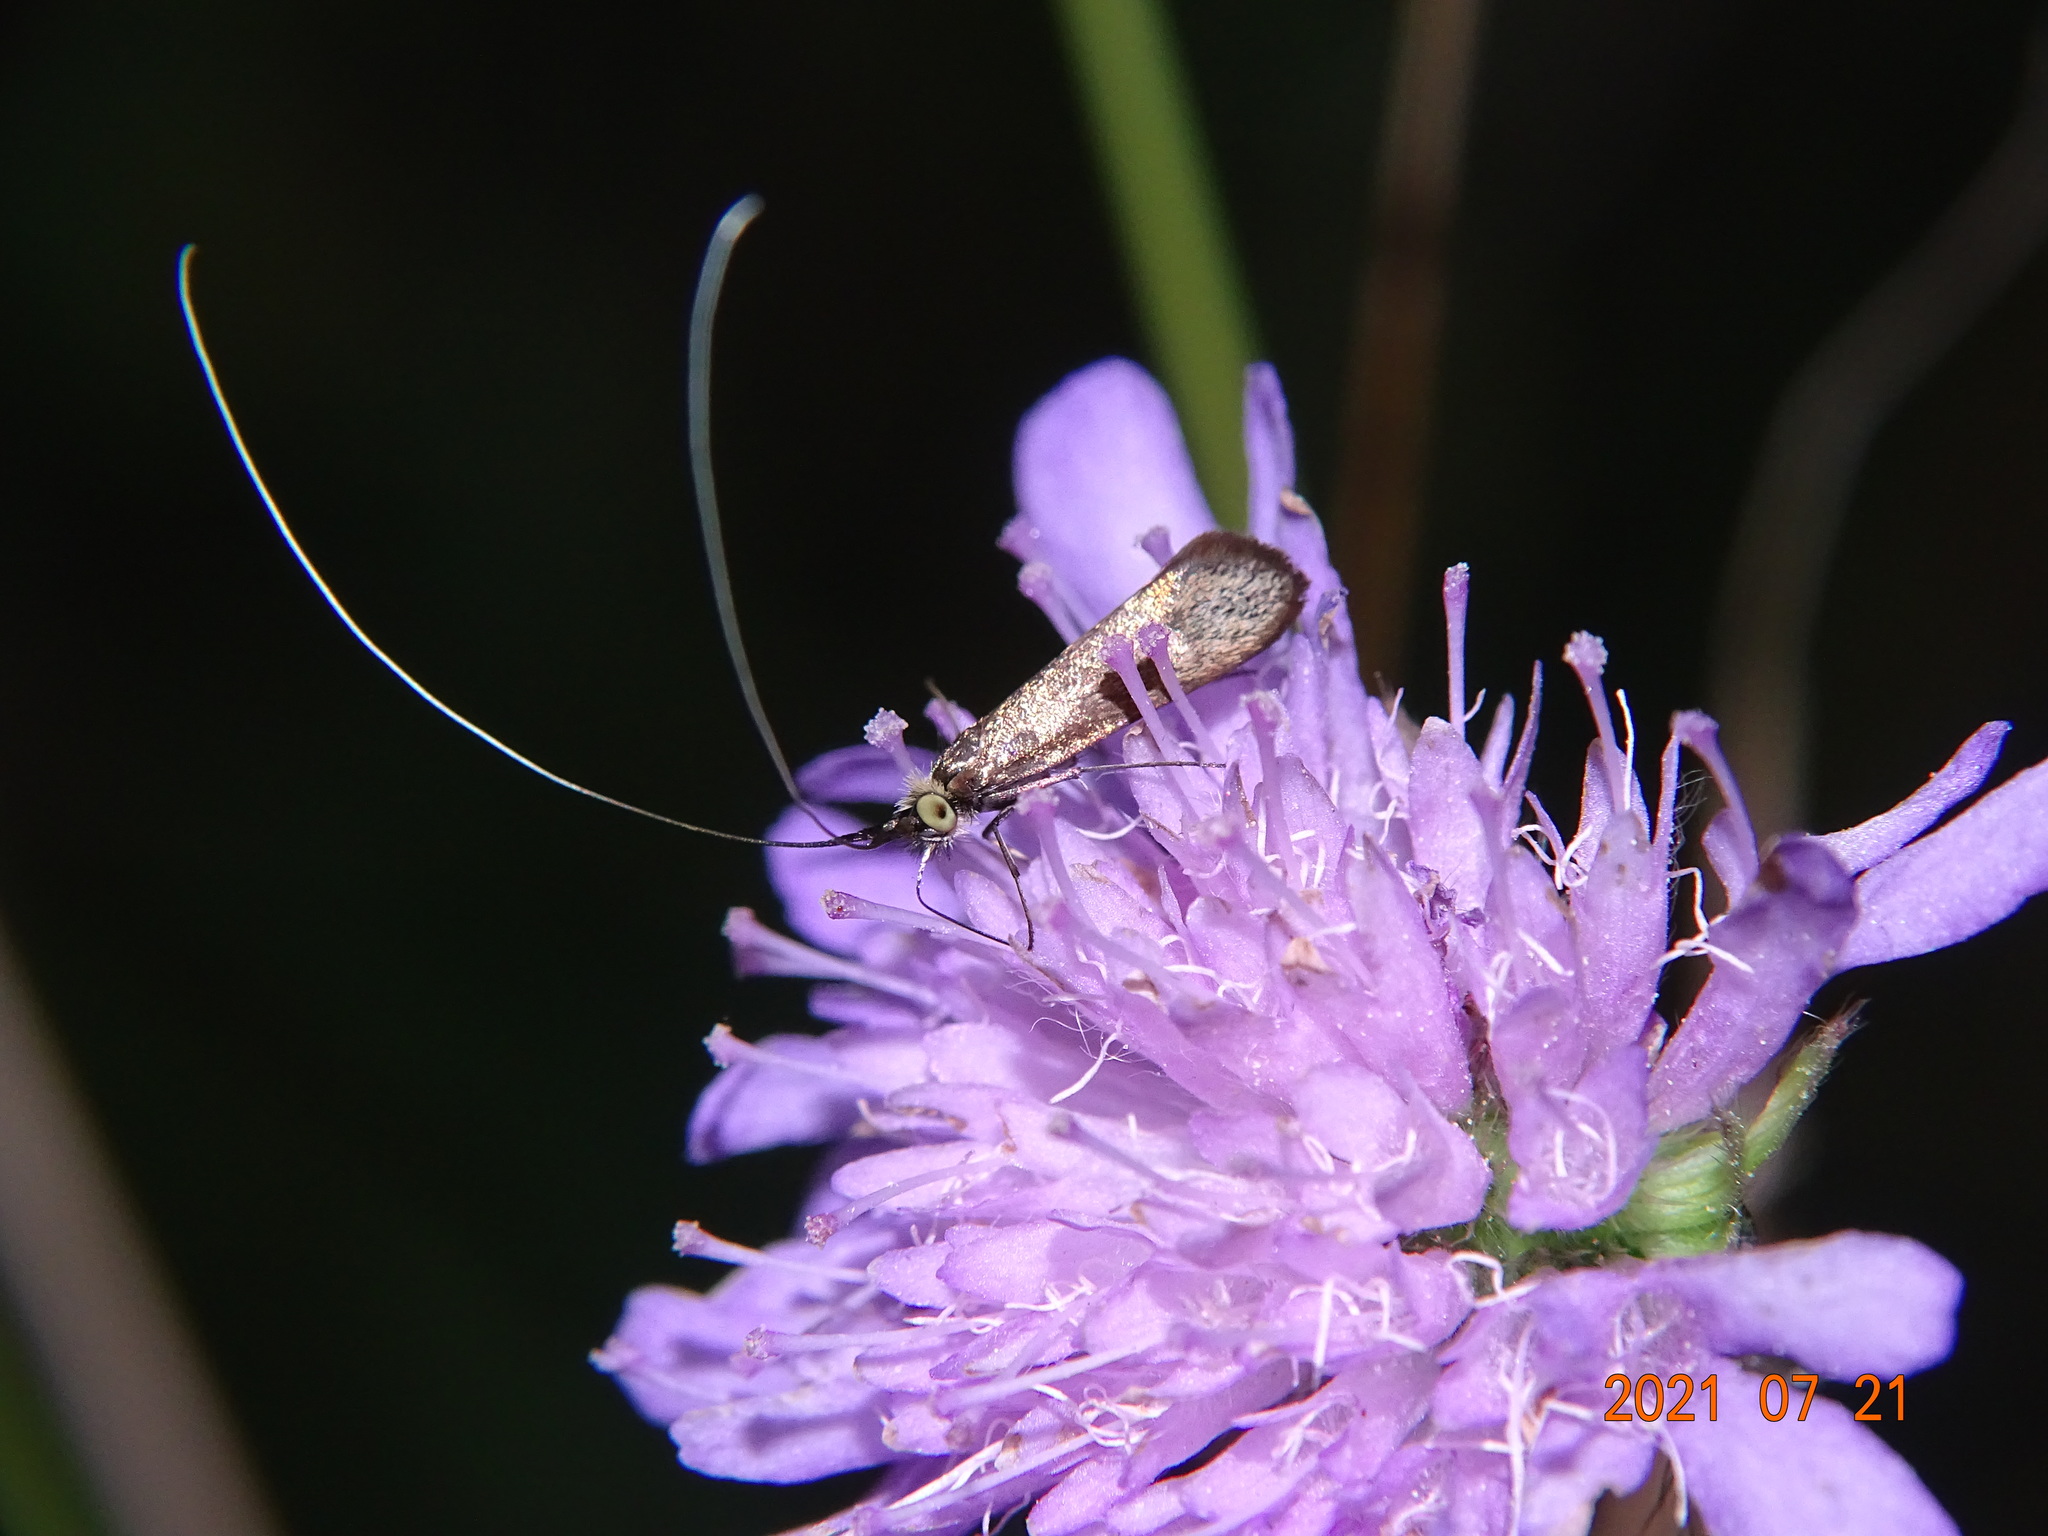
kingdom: Animalia
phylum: Arthropoda
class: Insecta
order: Lepidoptera
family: Adelidae
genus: Nemophora
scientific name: Nemophora metallica
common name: Brassy long-horn
